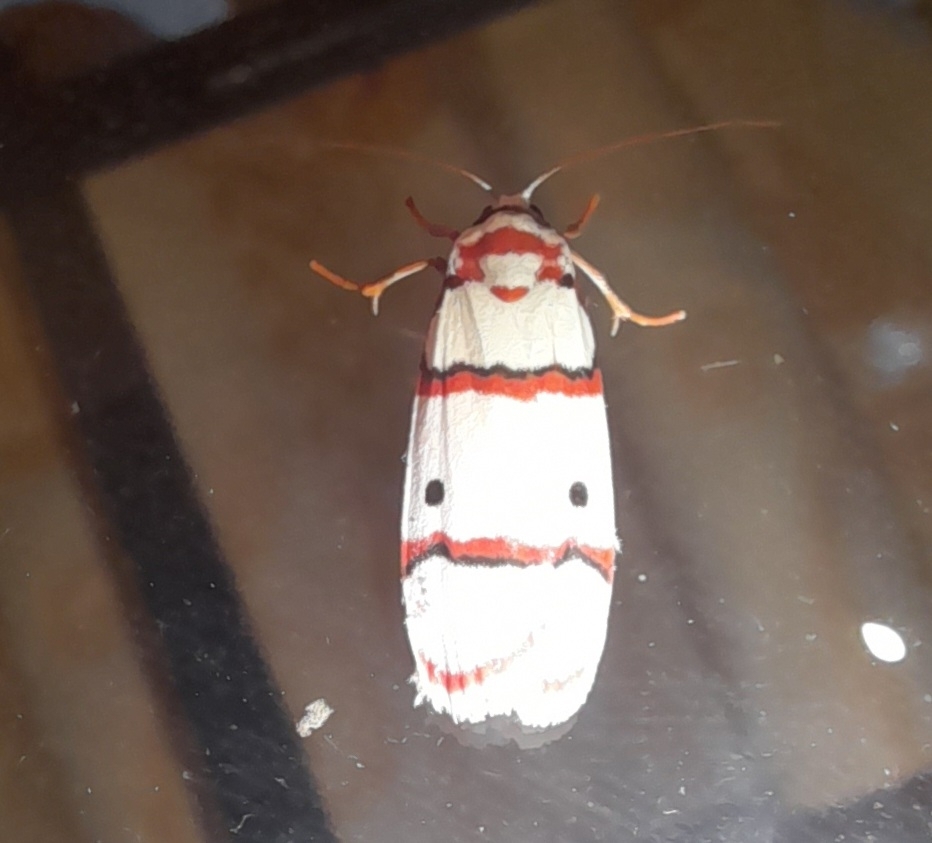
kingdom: Animalia
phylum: Arthropoda
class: Insecta
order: Lepidoptera
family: Erebidae
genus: Cyana
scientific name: Cyana peregrina
